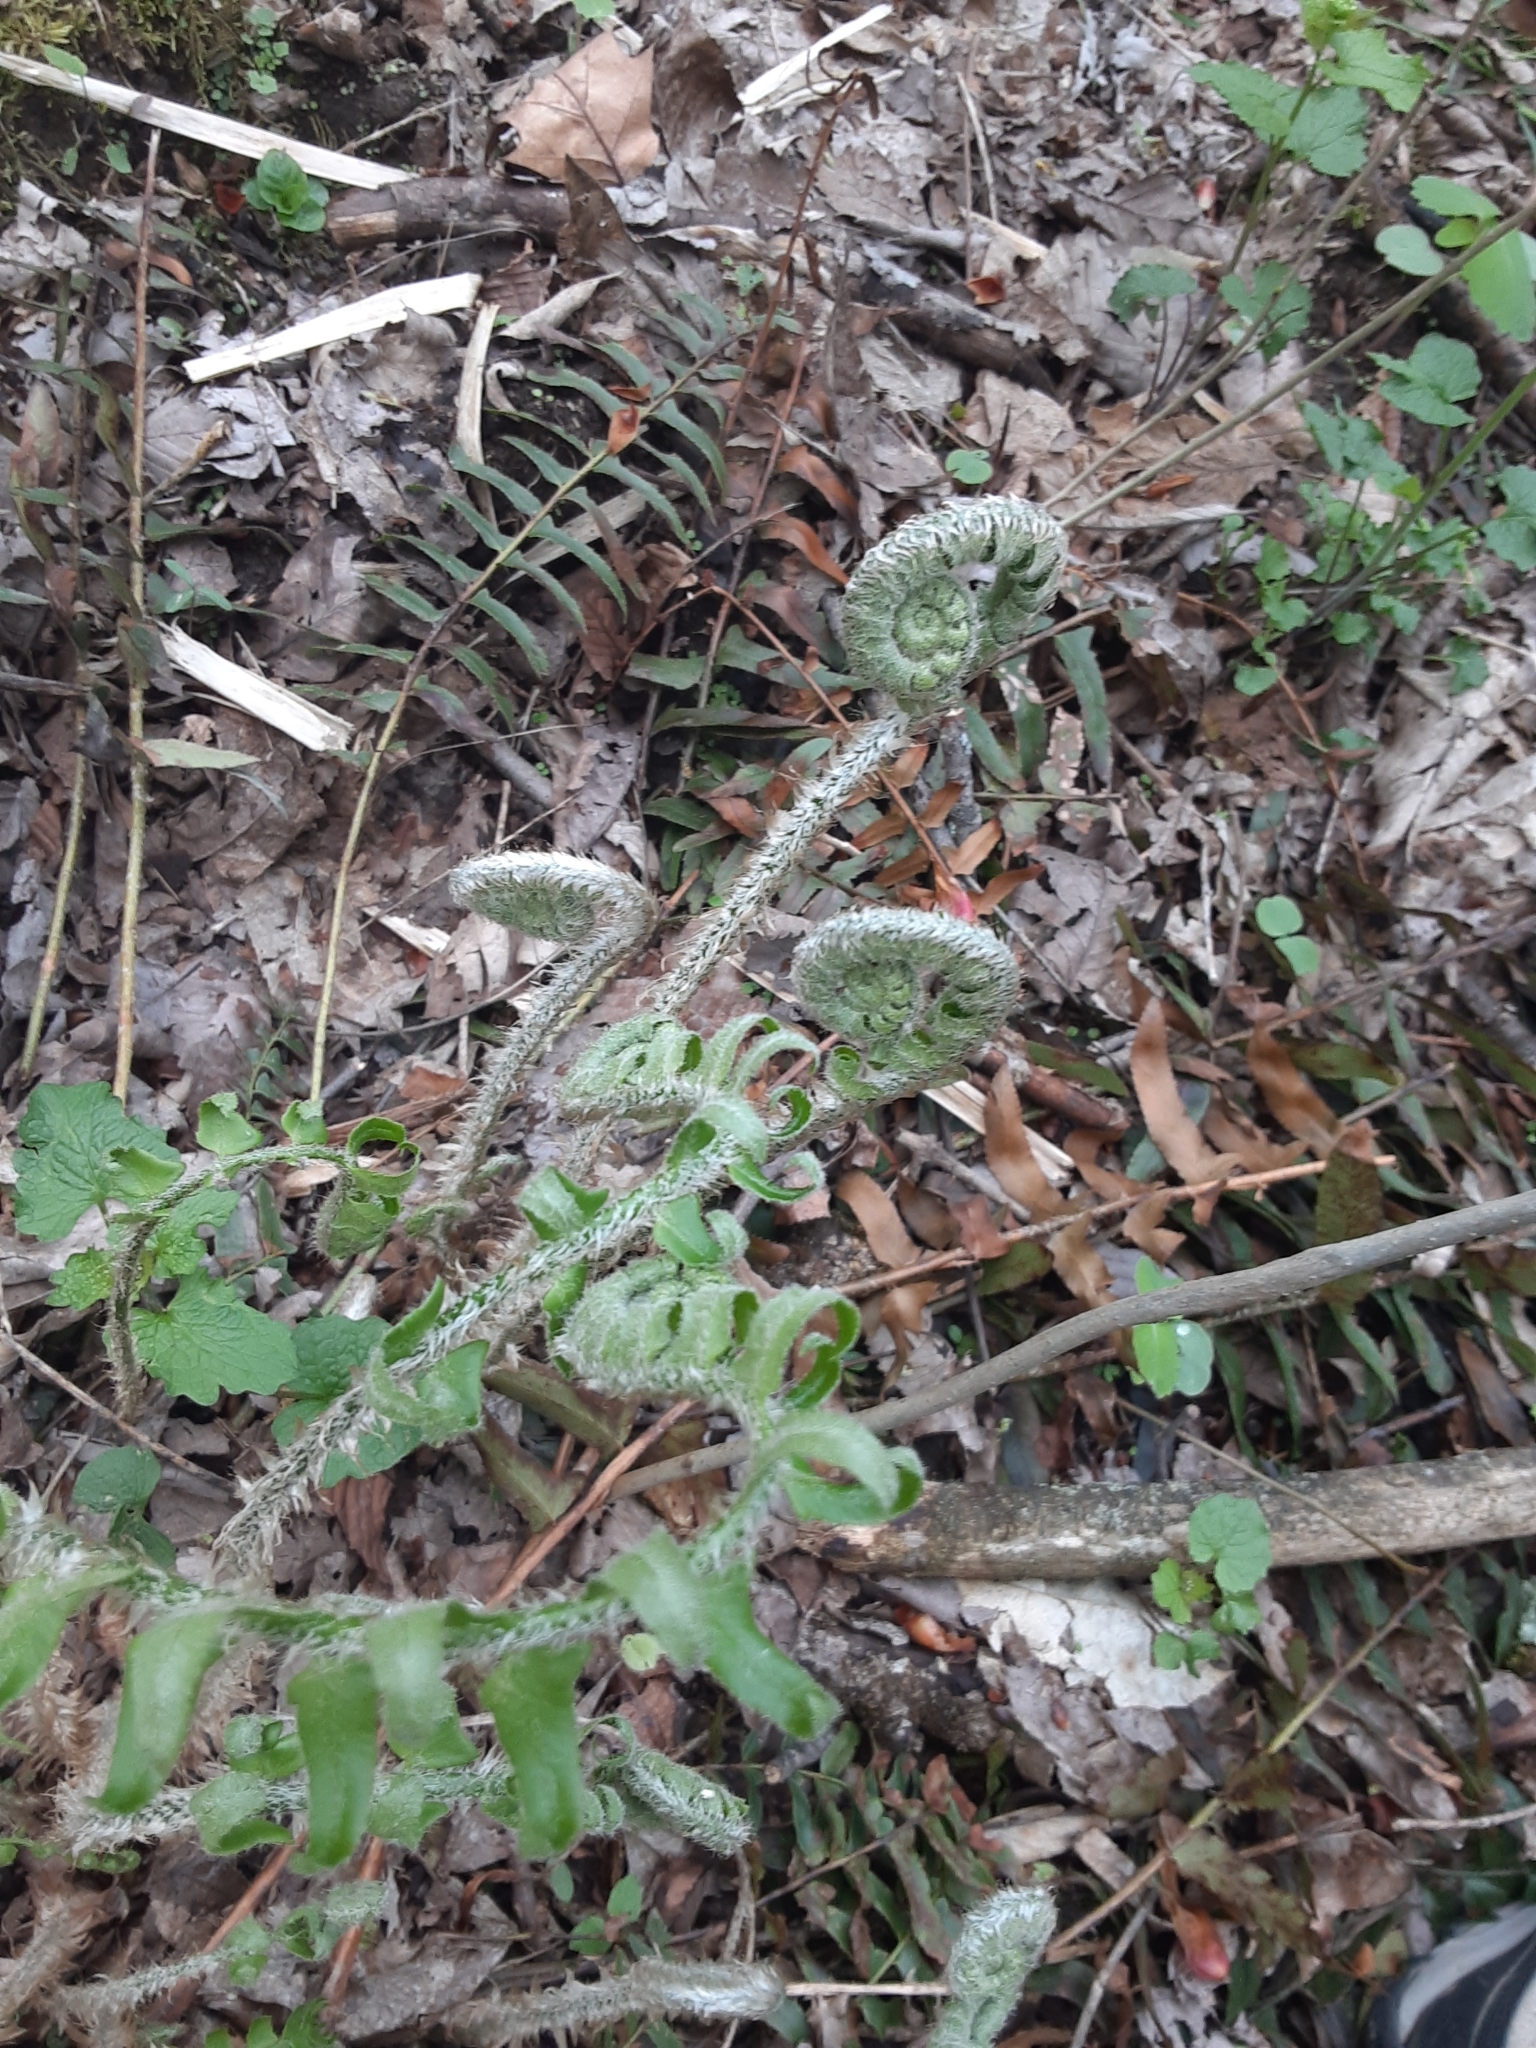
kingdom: Plantae
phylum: Tracheophyta
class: Polypodiopsida
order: Polypodiales
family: Dryopteridaceae
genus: Polystichum
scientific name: Polystichum acrostichoides
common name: Christmas fern
